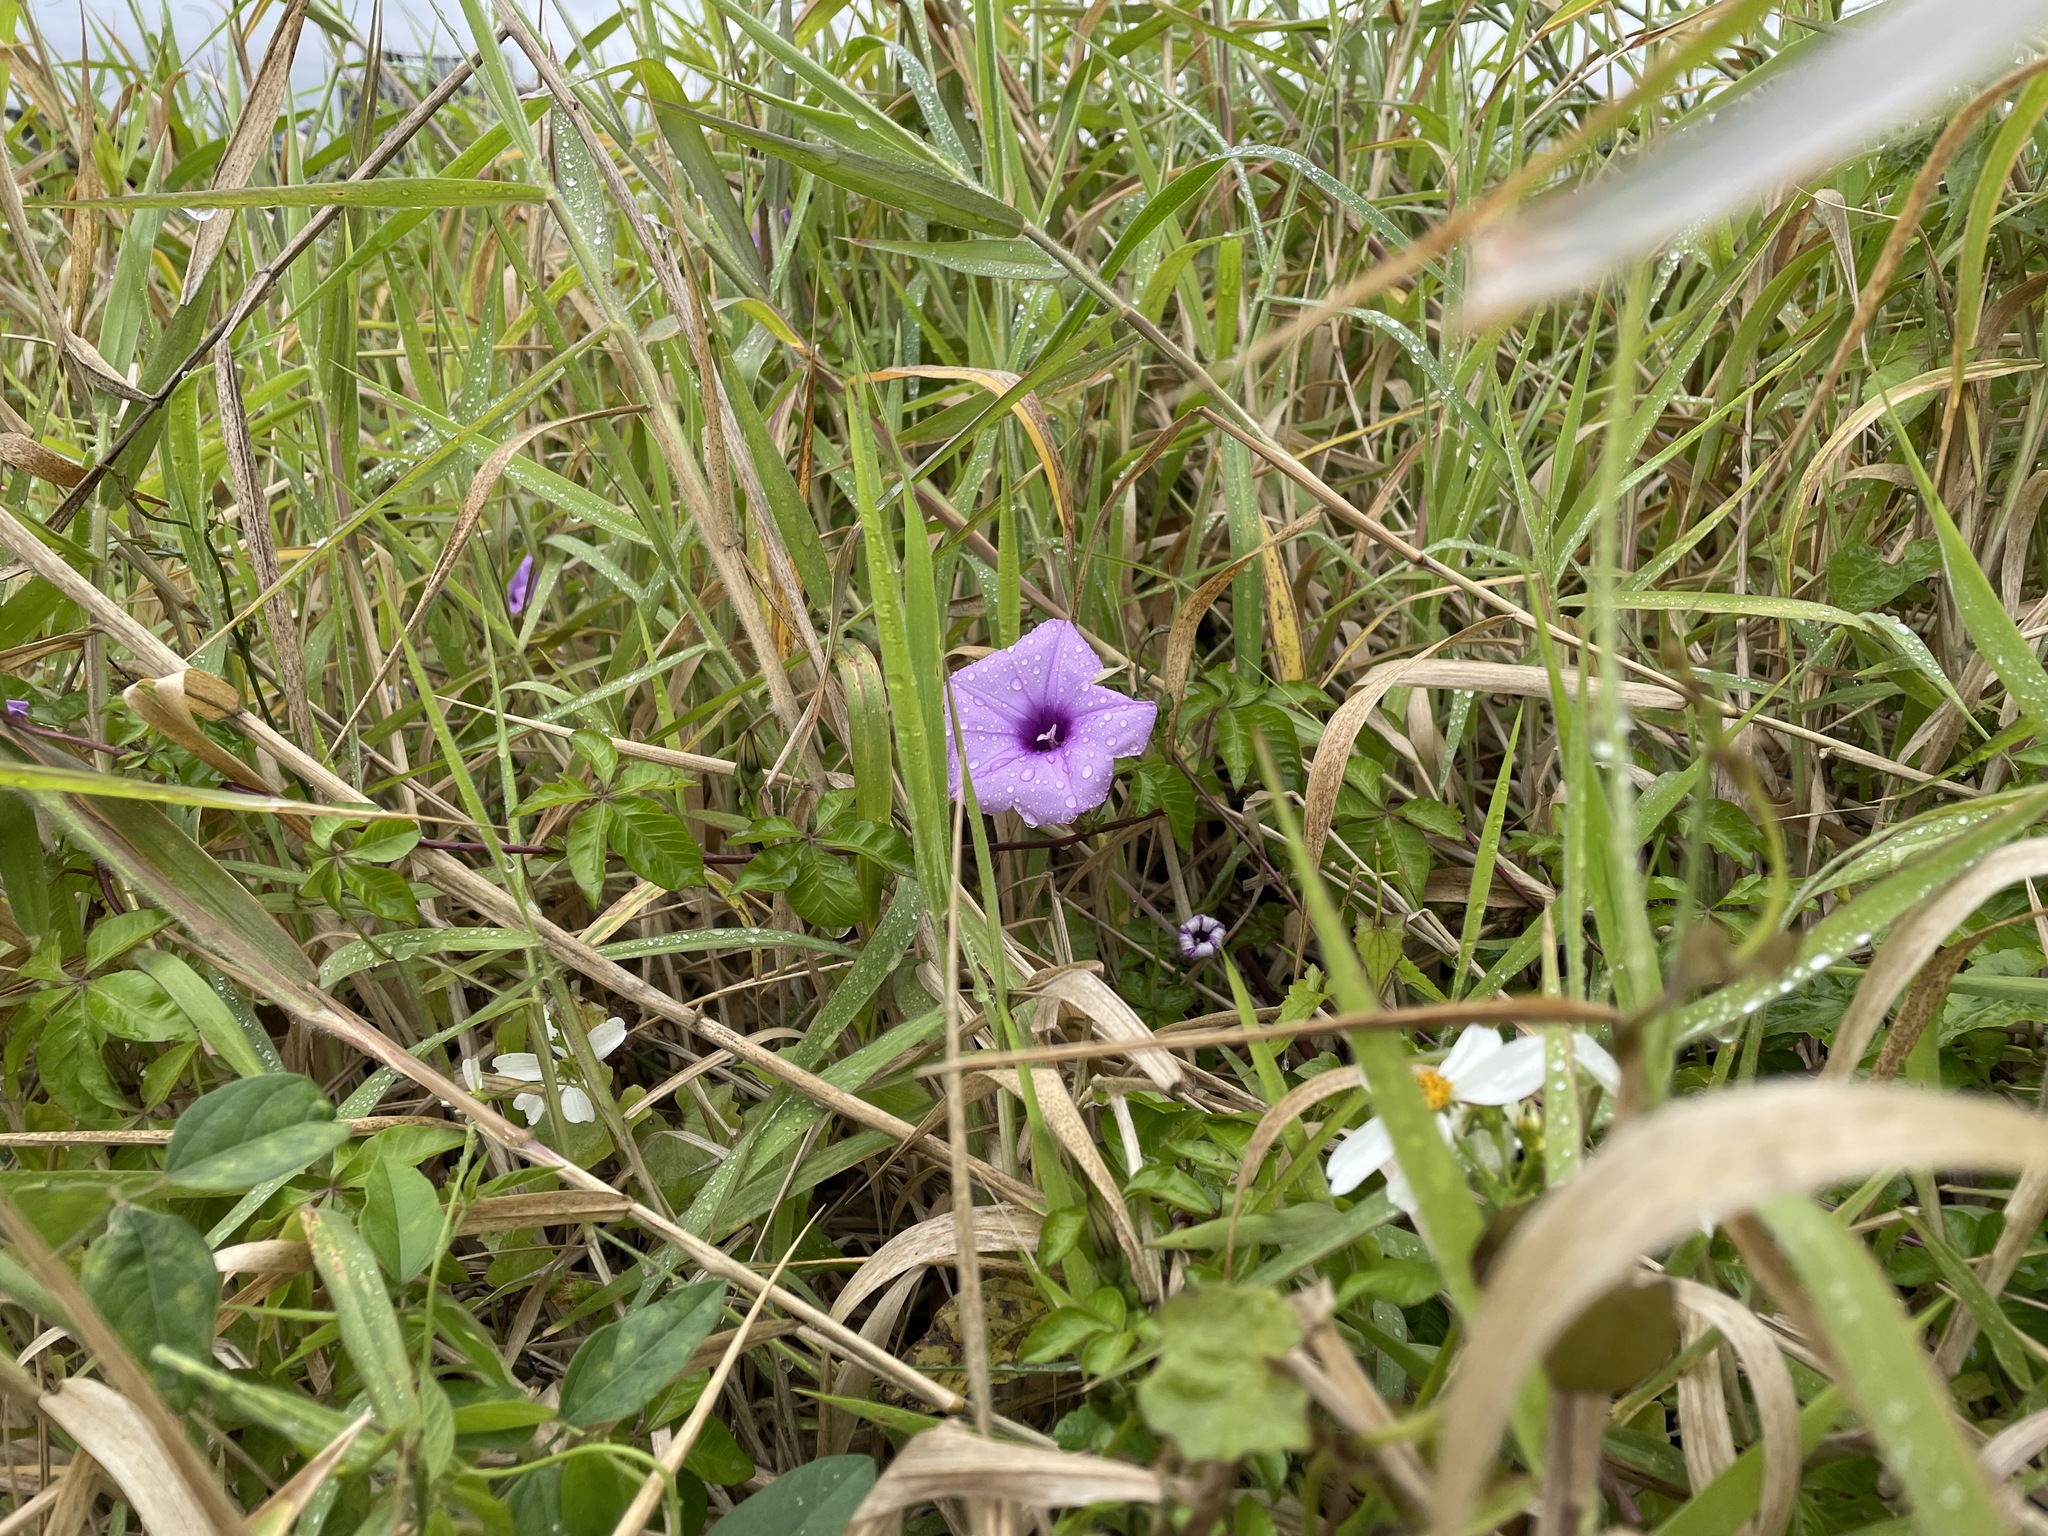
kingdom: Plantae
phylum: Tracheophyta
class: Magnoliopsida
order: Solanales
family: Convolvulaceae
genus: Ipomoea
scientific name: Ipomoea cairica
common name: Mile a minute vine
